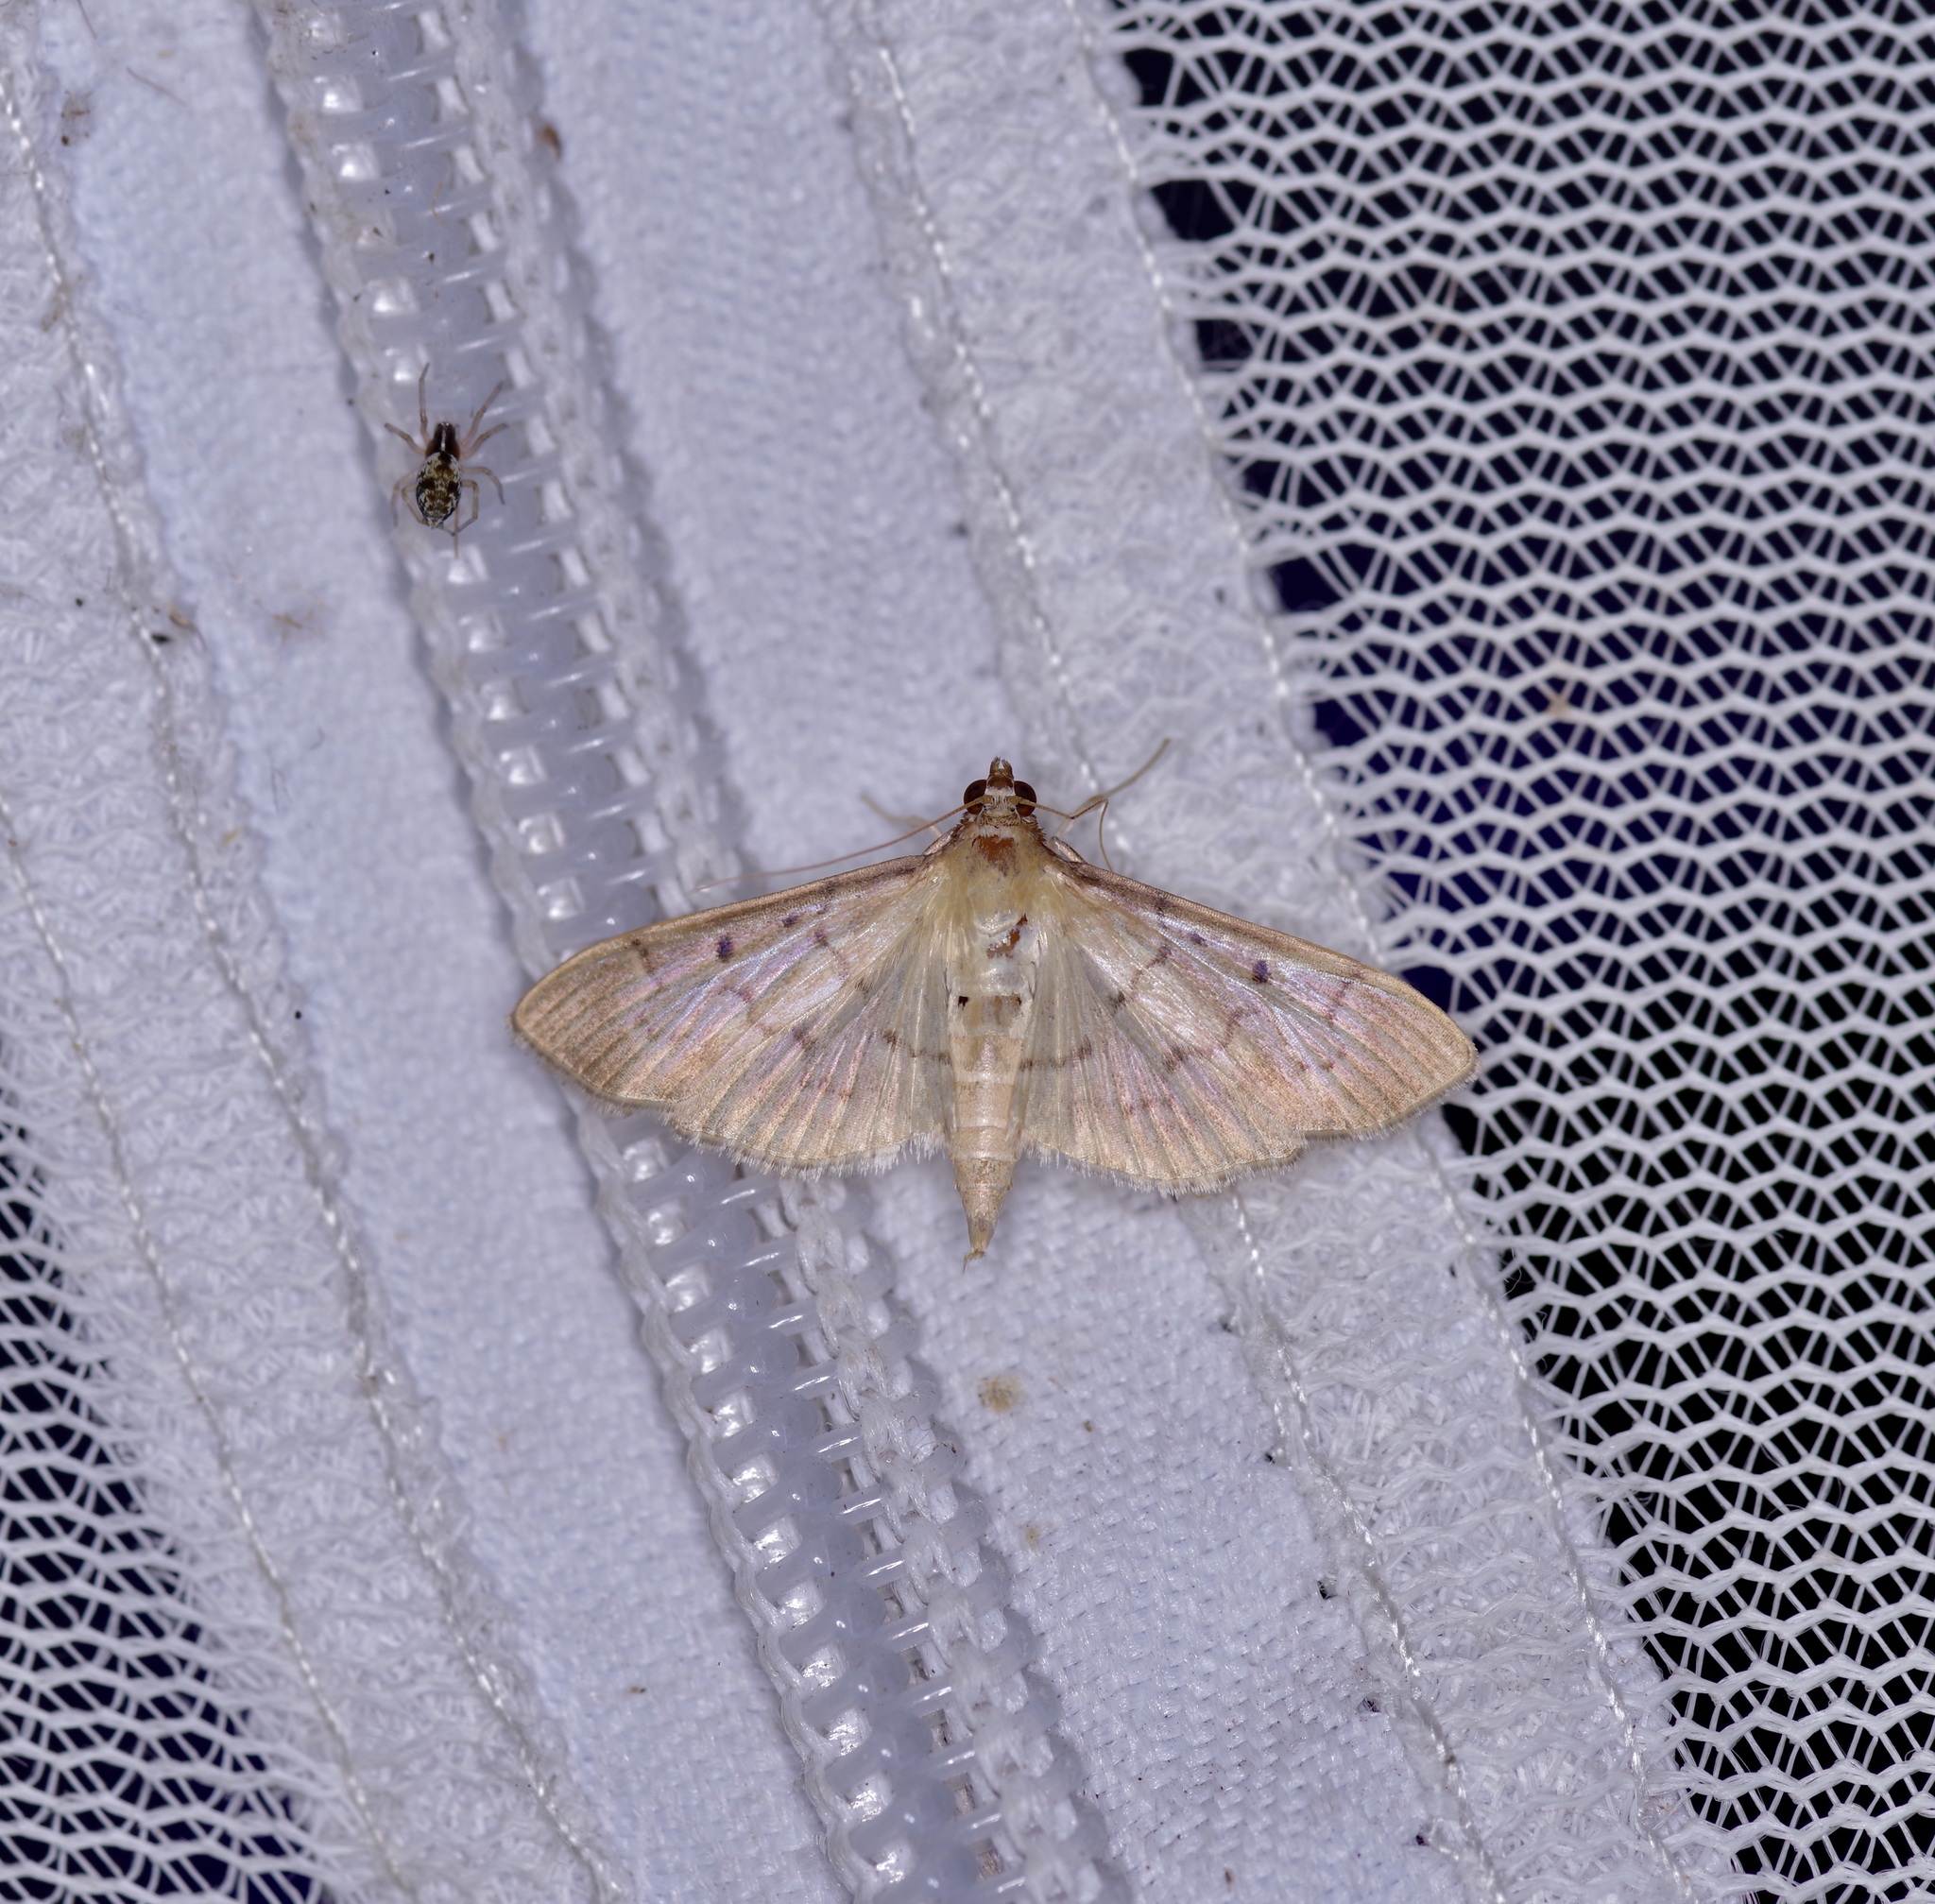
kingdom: Animalia
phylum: Arthropoda
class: Insecta
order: Lepidoptera
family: Crambidae
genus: Herpetogramma
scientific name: Herpetogramma bipunctalis
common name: Southern beet webworm
